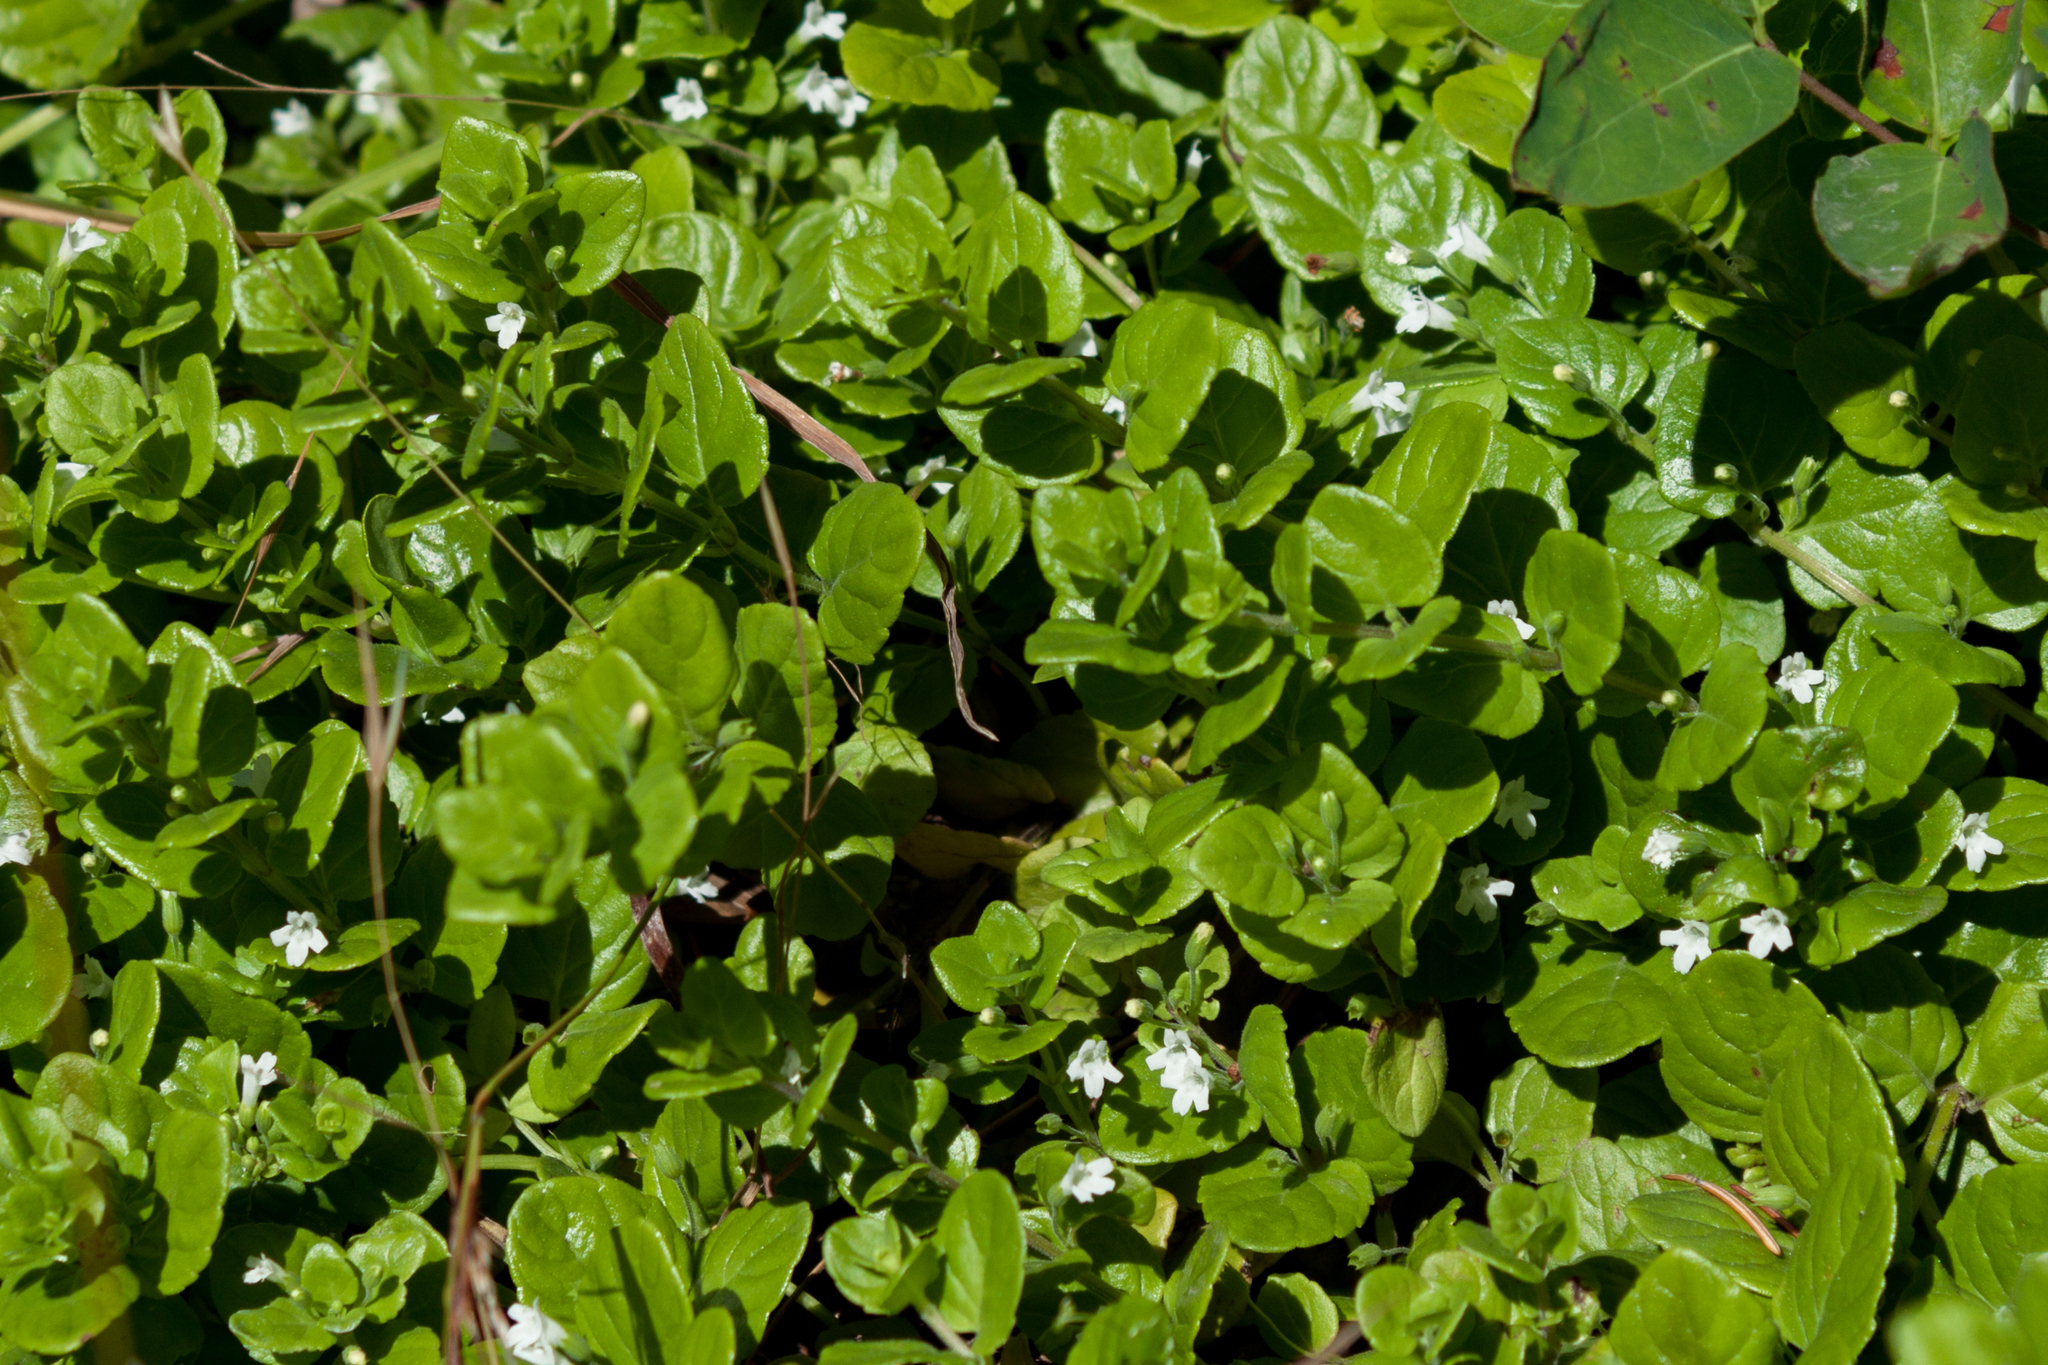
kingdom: Plantae
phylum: Tracheophyta
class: Magnoliopsida
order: Lamiales
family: Lamiaceae
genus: Micromeria
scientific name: Micromeria douglasii
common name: Yerba buena
